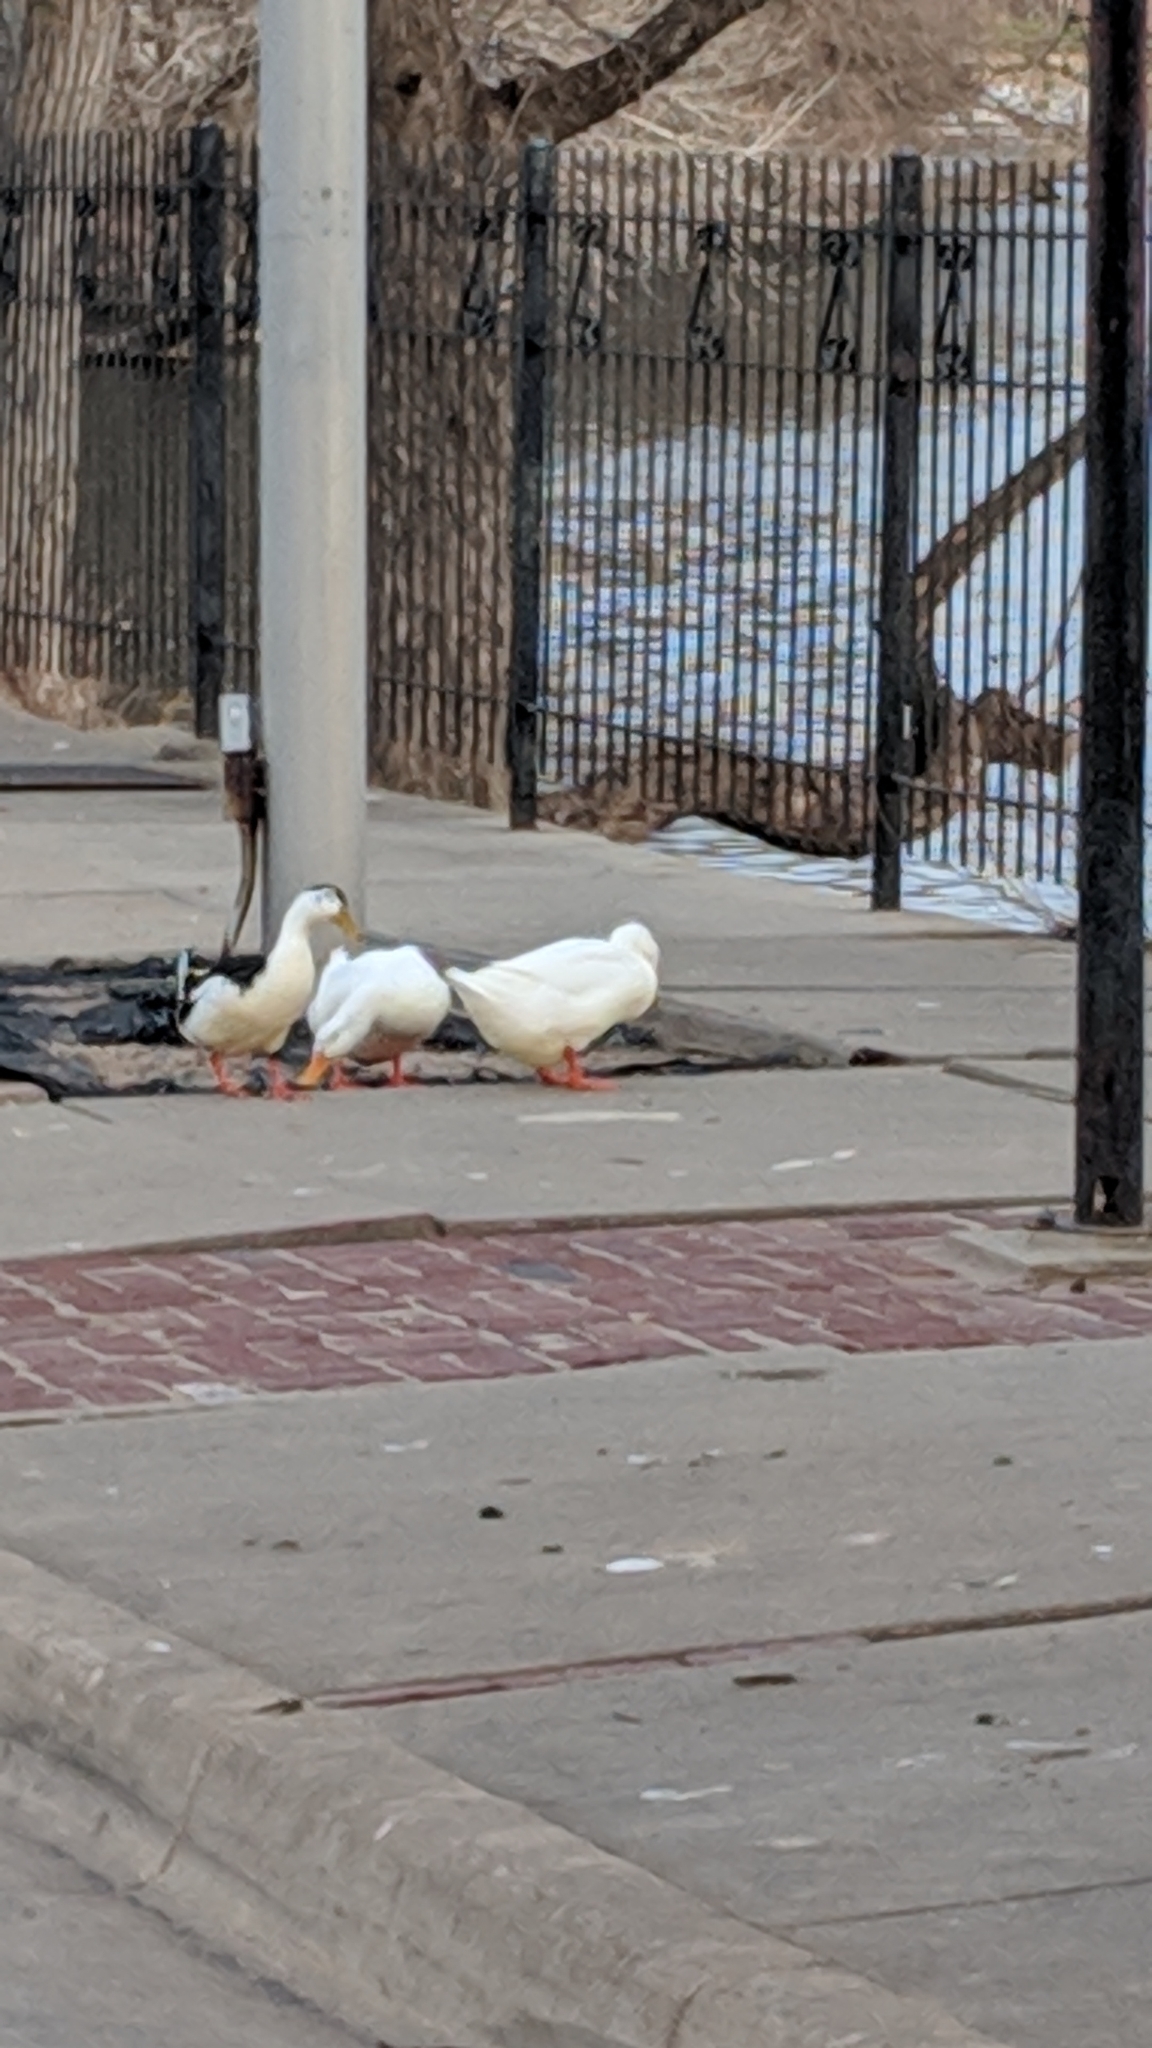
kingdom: Animalia
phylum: Chordata
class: Aves
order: Anseriformes
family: Anatidae
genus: Anas
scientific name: Anas platyrhynchos
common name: Mallard
